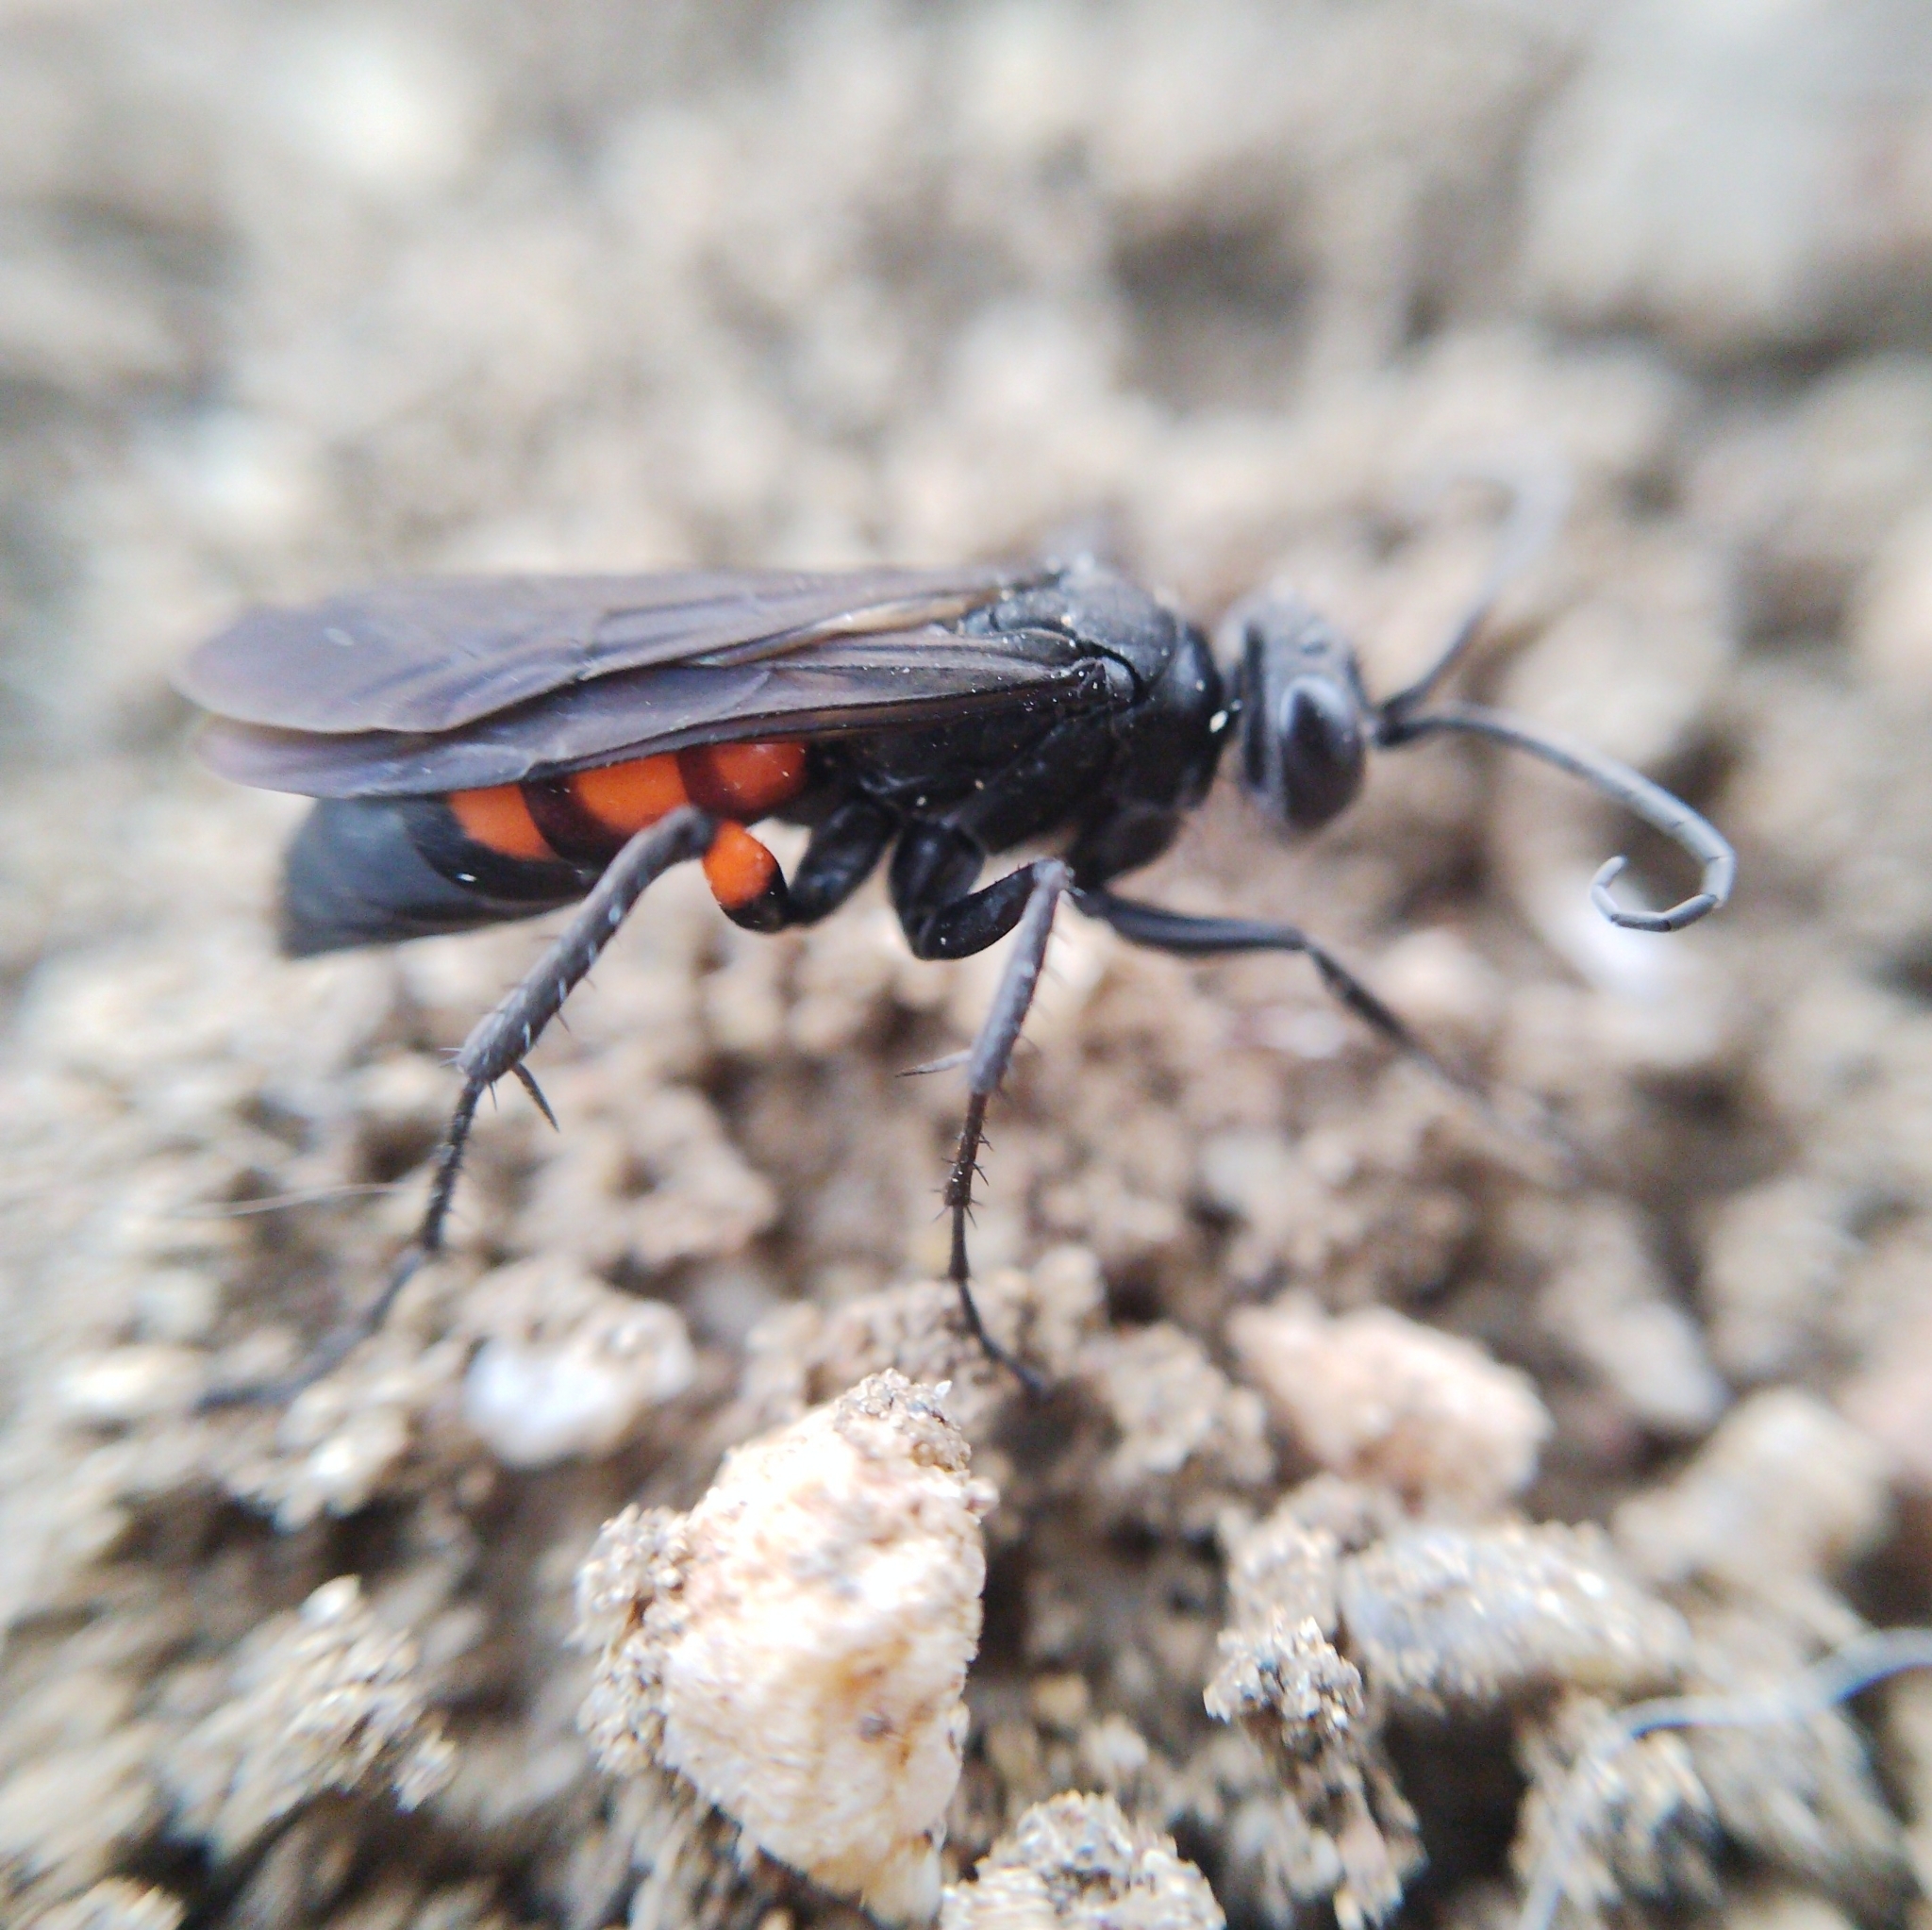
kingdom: Animalia
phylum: Arthropoda
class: Insecta
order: Hymenoptera
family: Pompilidae
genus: Anoplius
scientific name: Anoplius viaticus
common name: Black banded spider wasp
